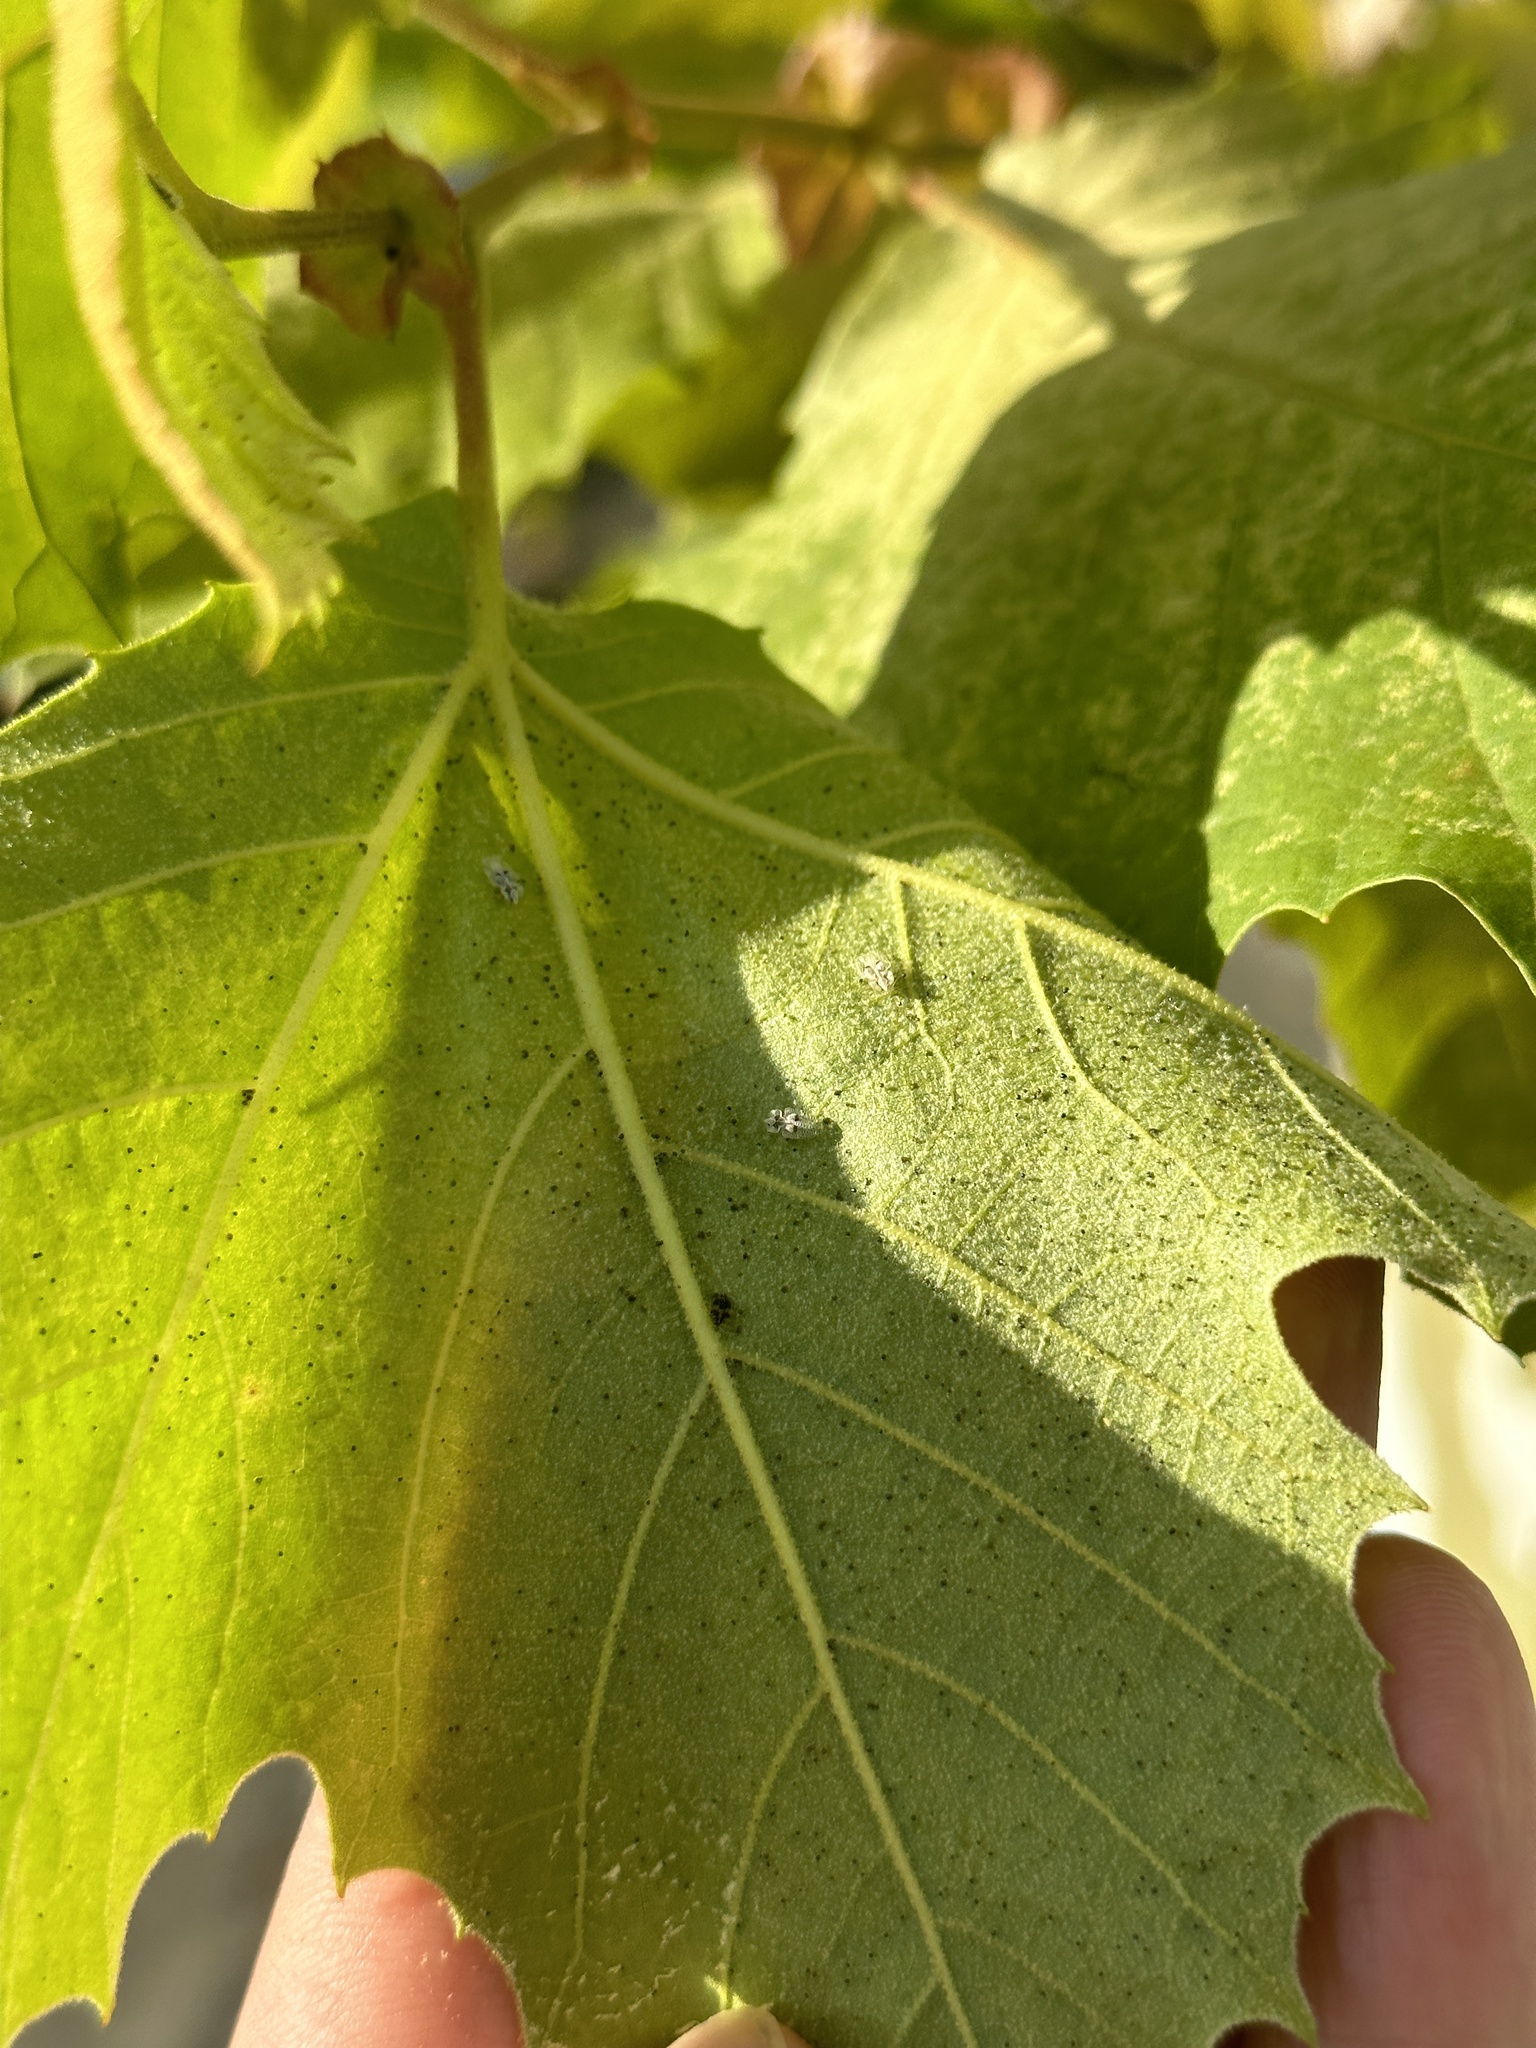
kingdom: Animalia
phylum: Arthropoda
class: Insecta
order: Hemiptera
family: Tingidae
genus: Corythucha
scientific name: Corythucha ciliata
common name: Sycamore lace bug
